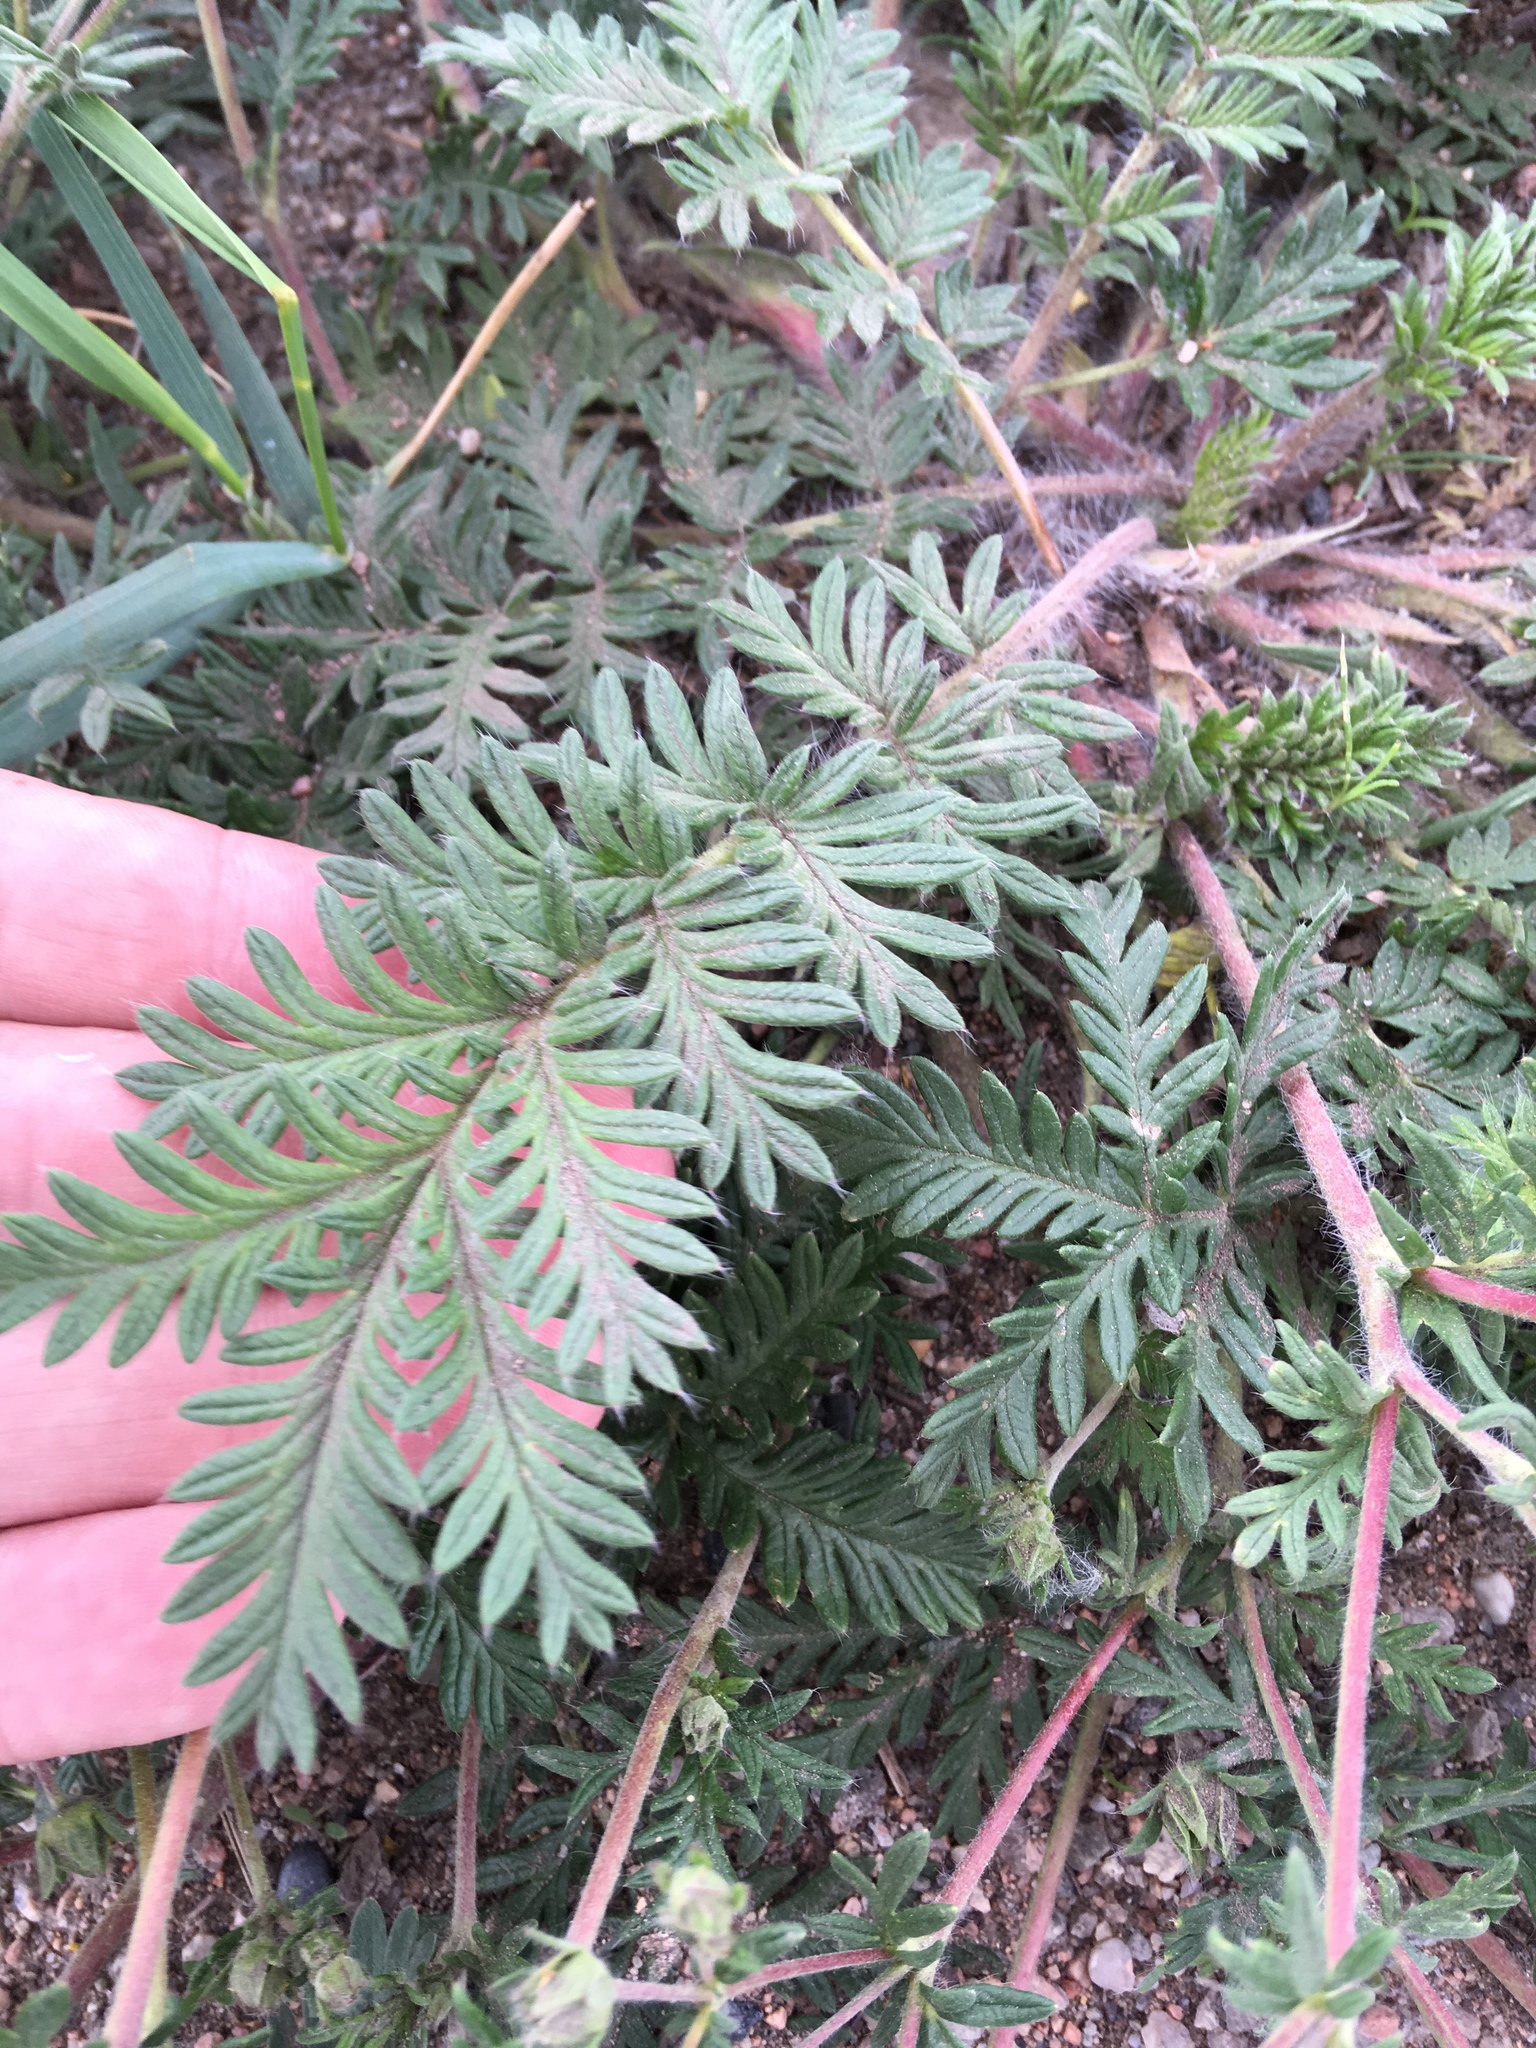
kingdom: Plantae
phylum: Tracheophyta
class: Magnoliopsida
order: Rosales
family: Rosaceae
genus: Potentilla
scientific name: Potentilla conferta
